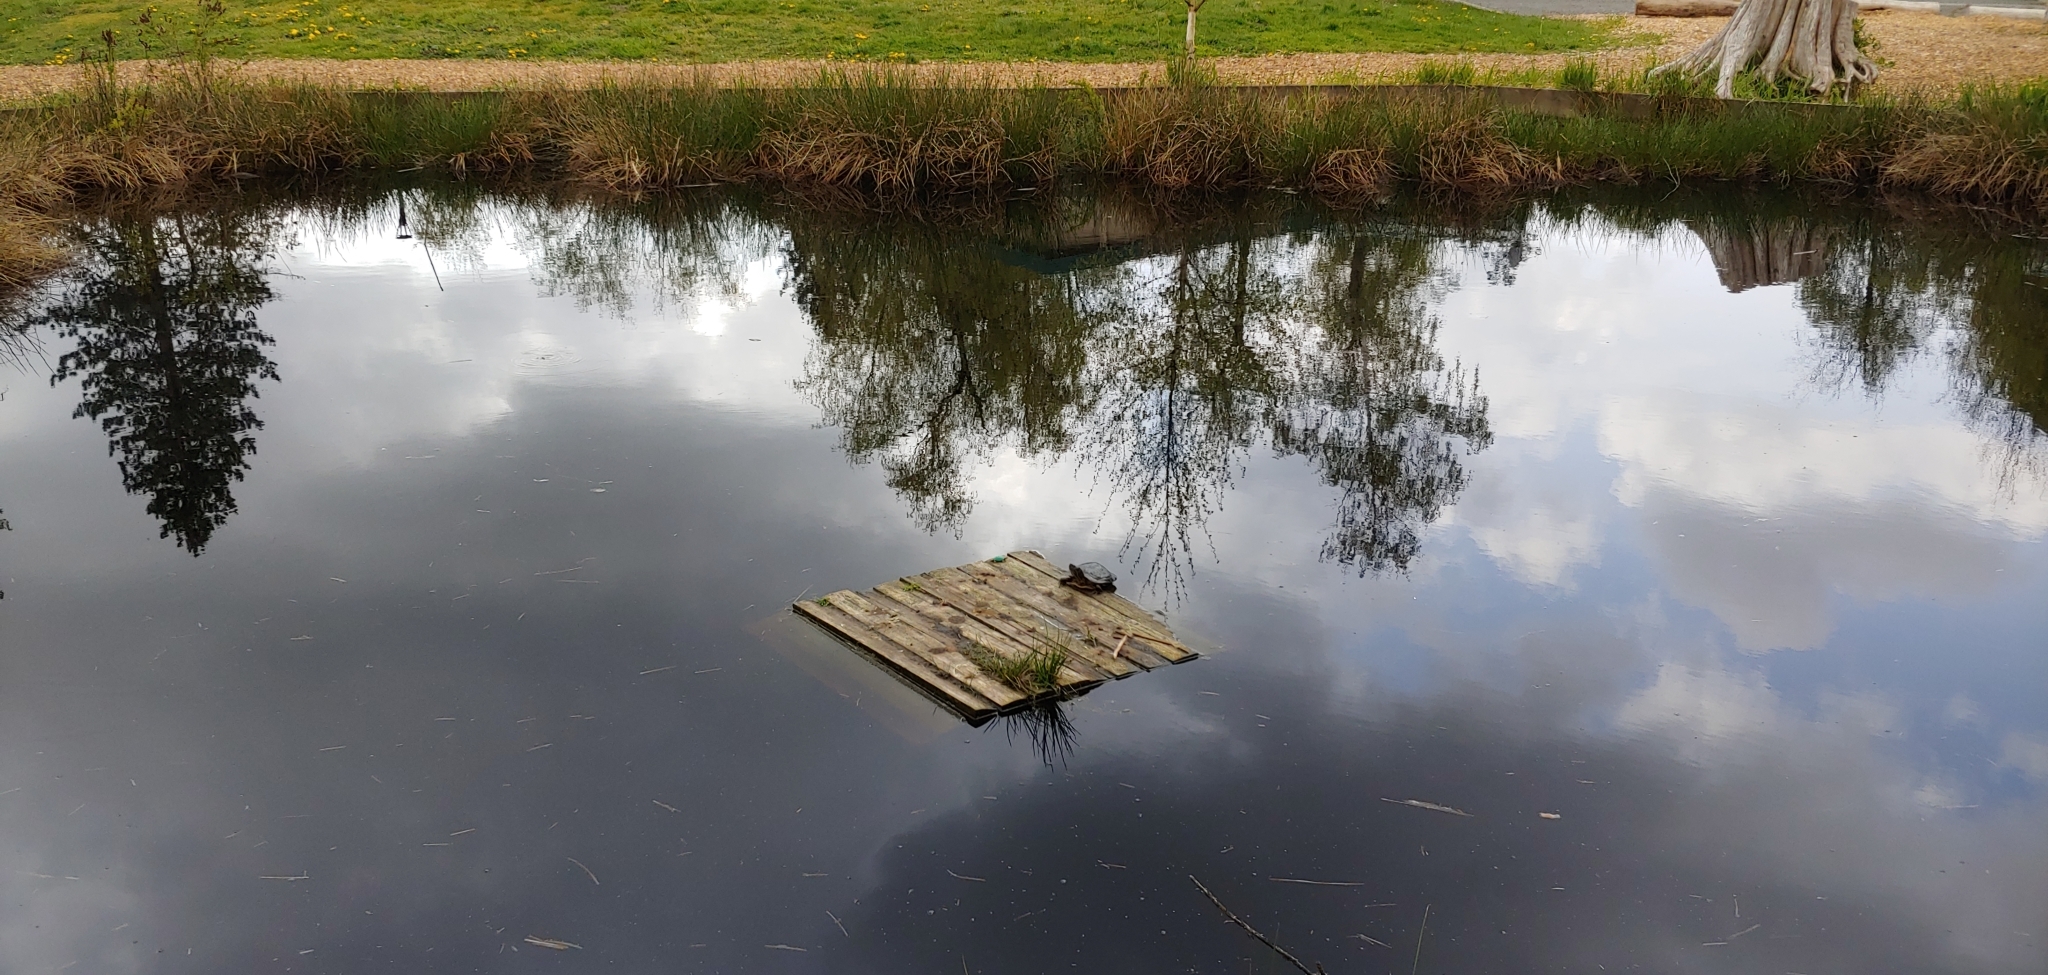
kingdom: Animalia
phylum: Chordata
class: Testudines
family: Emydidae
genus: Trachemys
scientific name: Trachemys scripta
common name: Slider
